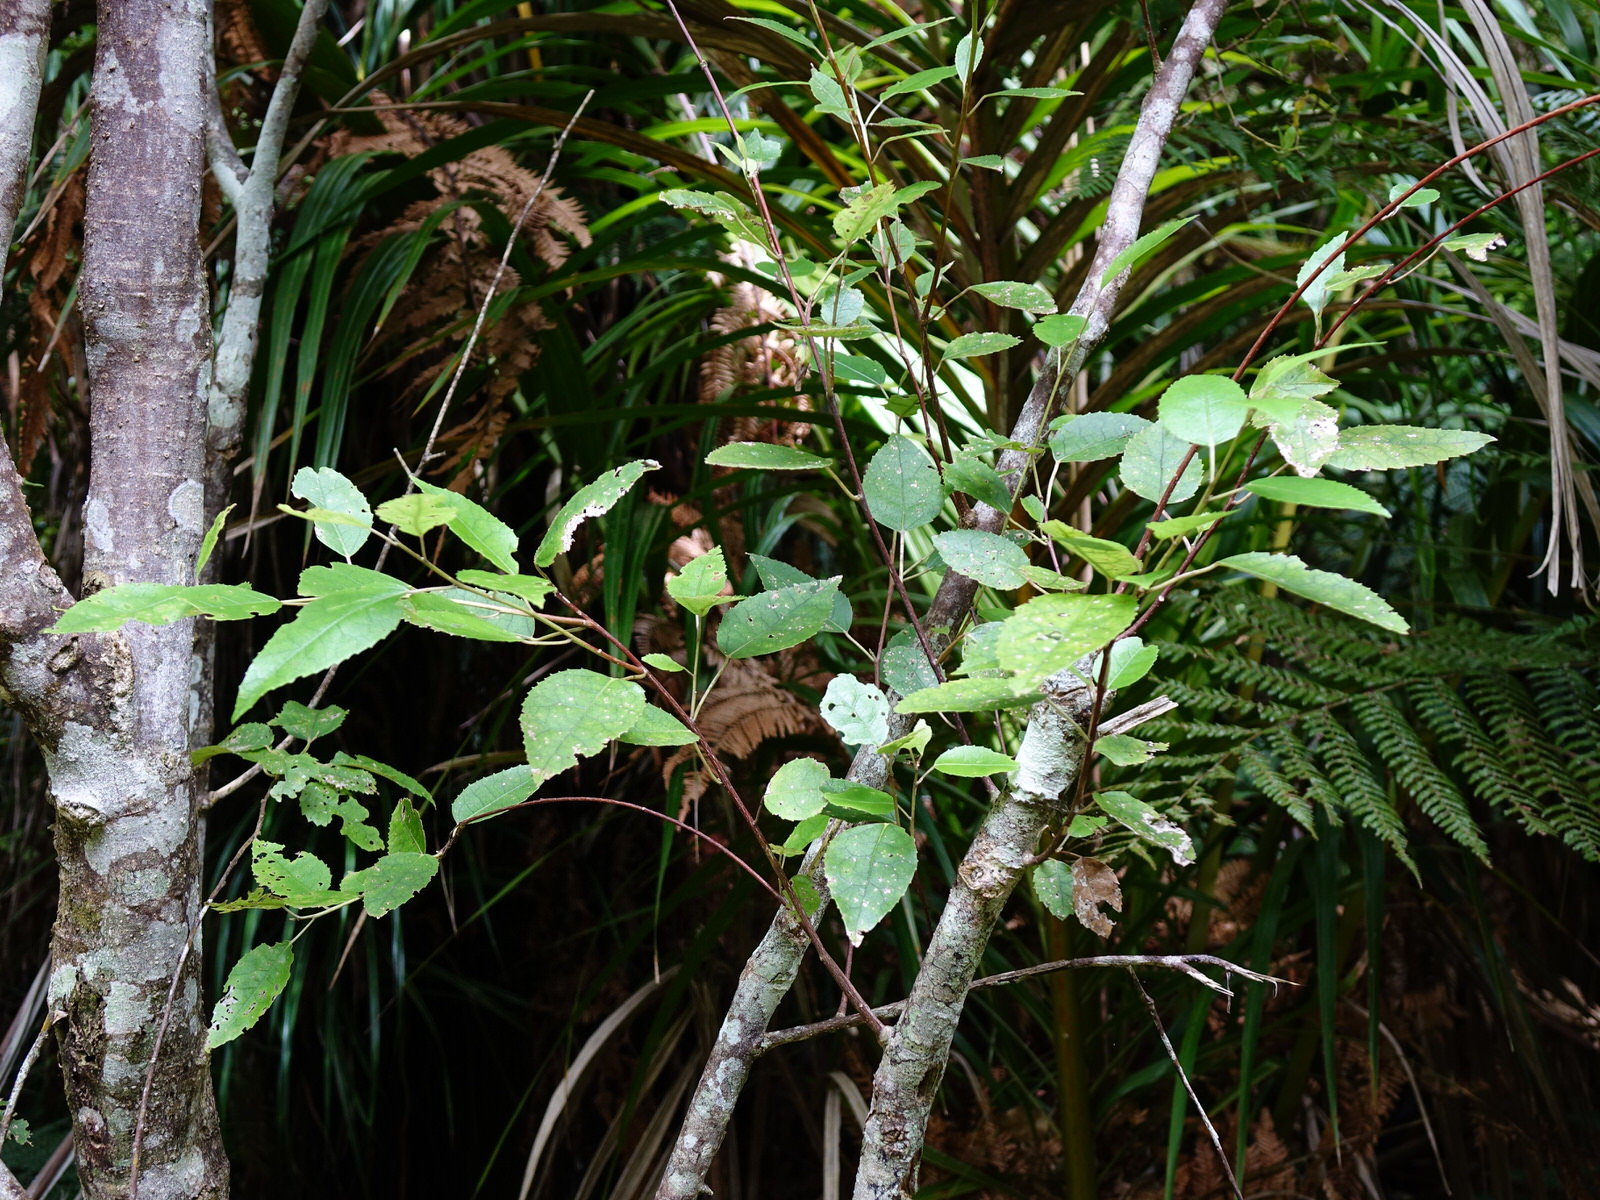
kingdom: Plantae
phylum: Tracheophyta
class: Magnoliopsida
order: Malvales
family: Malvaceae
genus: Hoheria
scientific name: Hoheria populnea
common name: Lacebark
